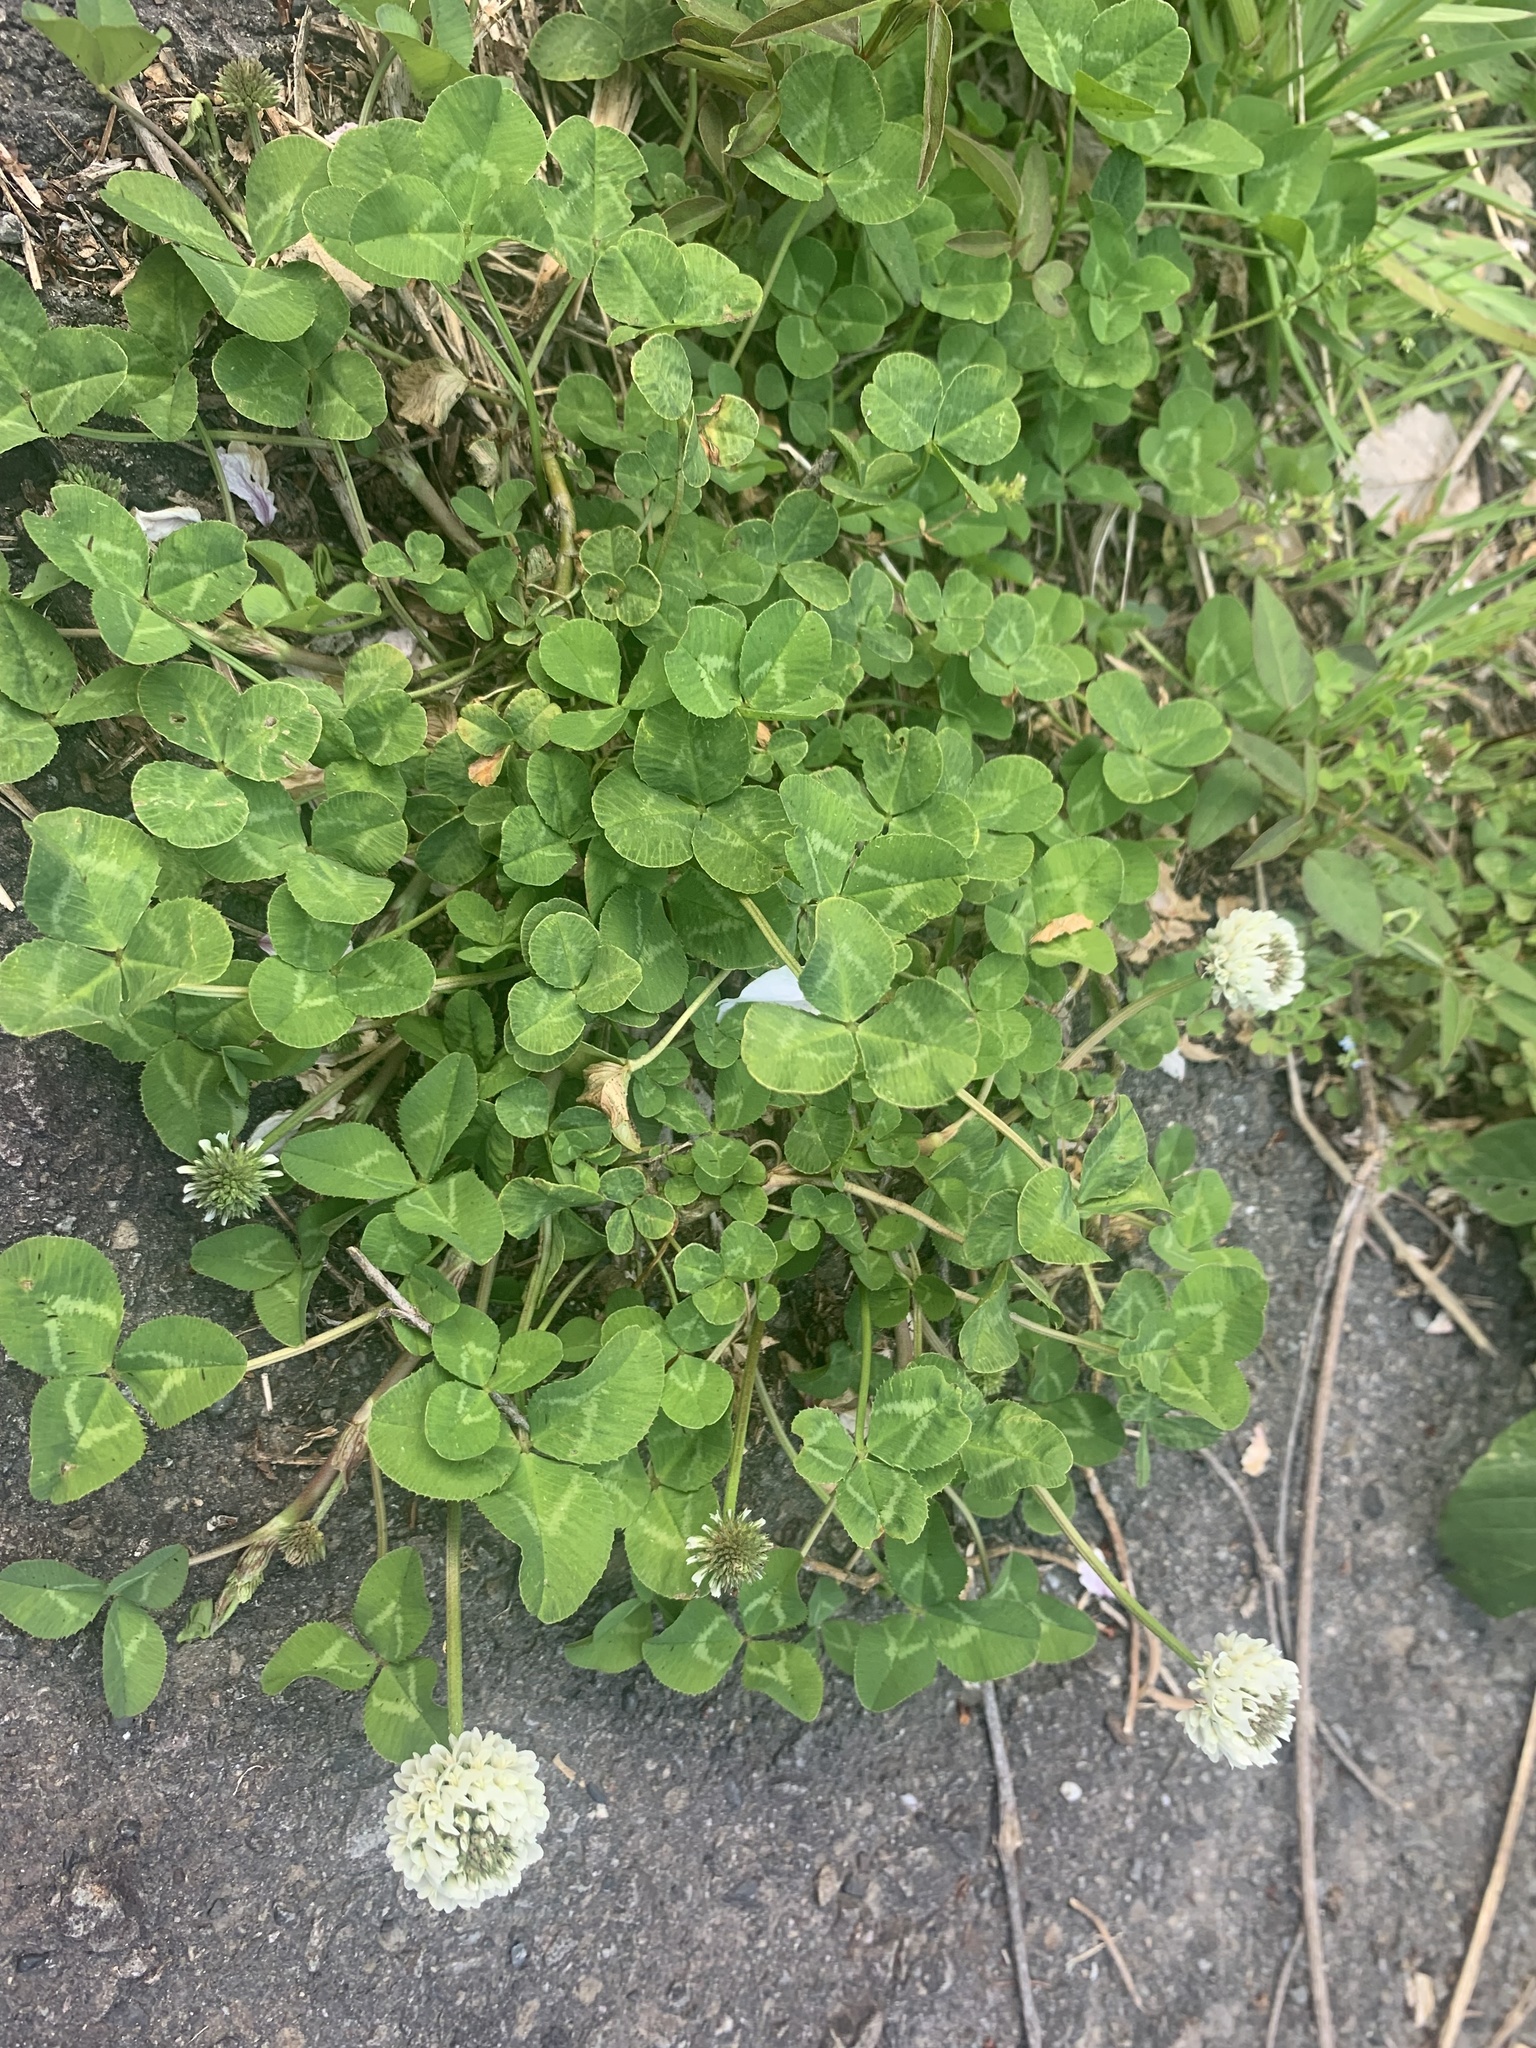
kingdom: Plantae
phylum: Tracheophyta
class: Magnoliopsida
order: Fabales
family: Fabaceae
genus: Trifolium
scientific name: Trifolium repens
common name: White clover
